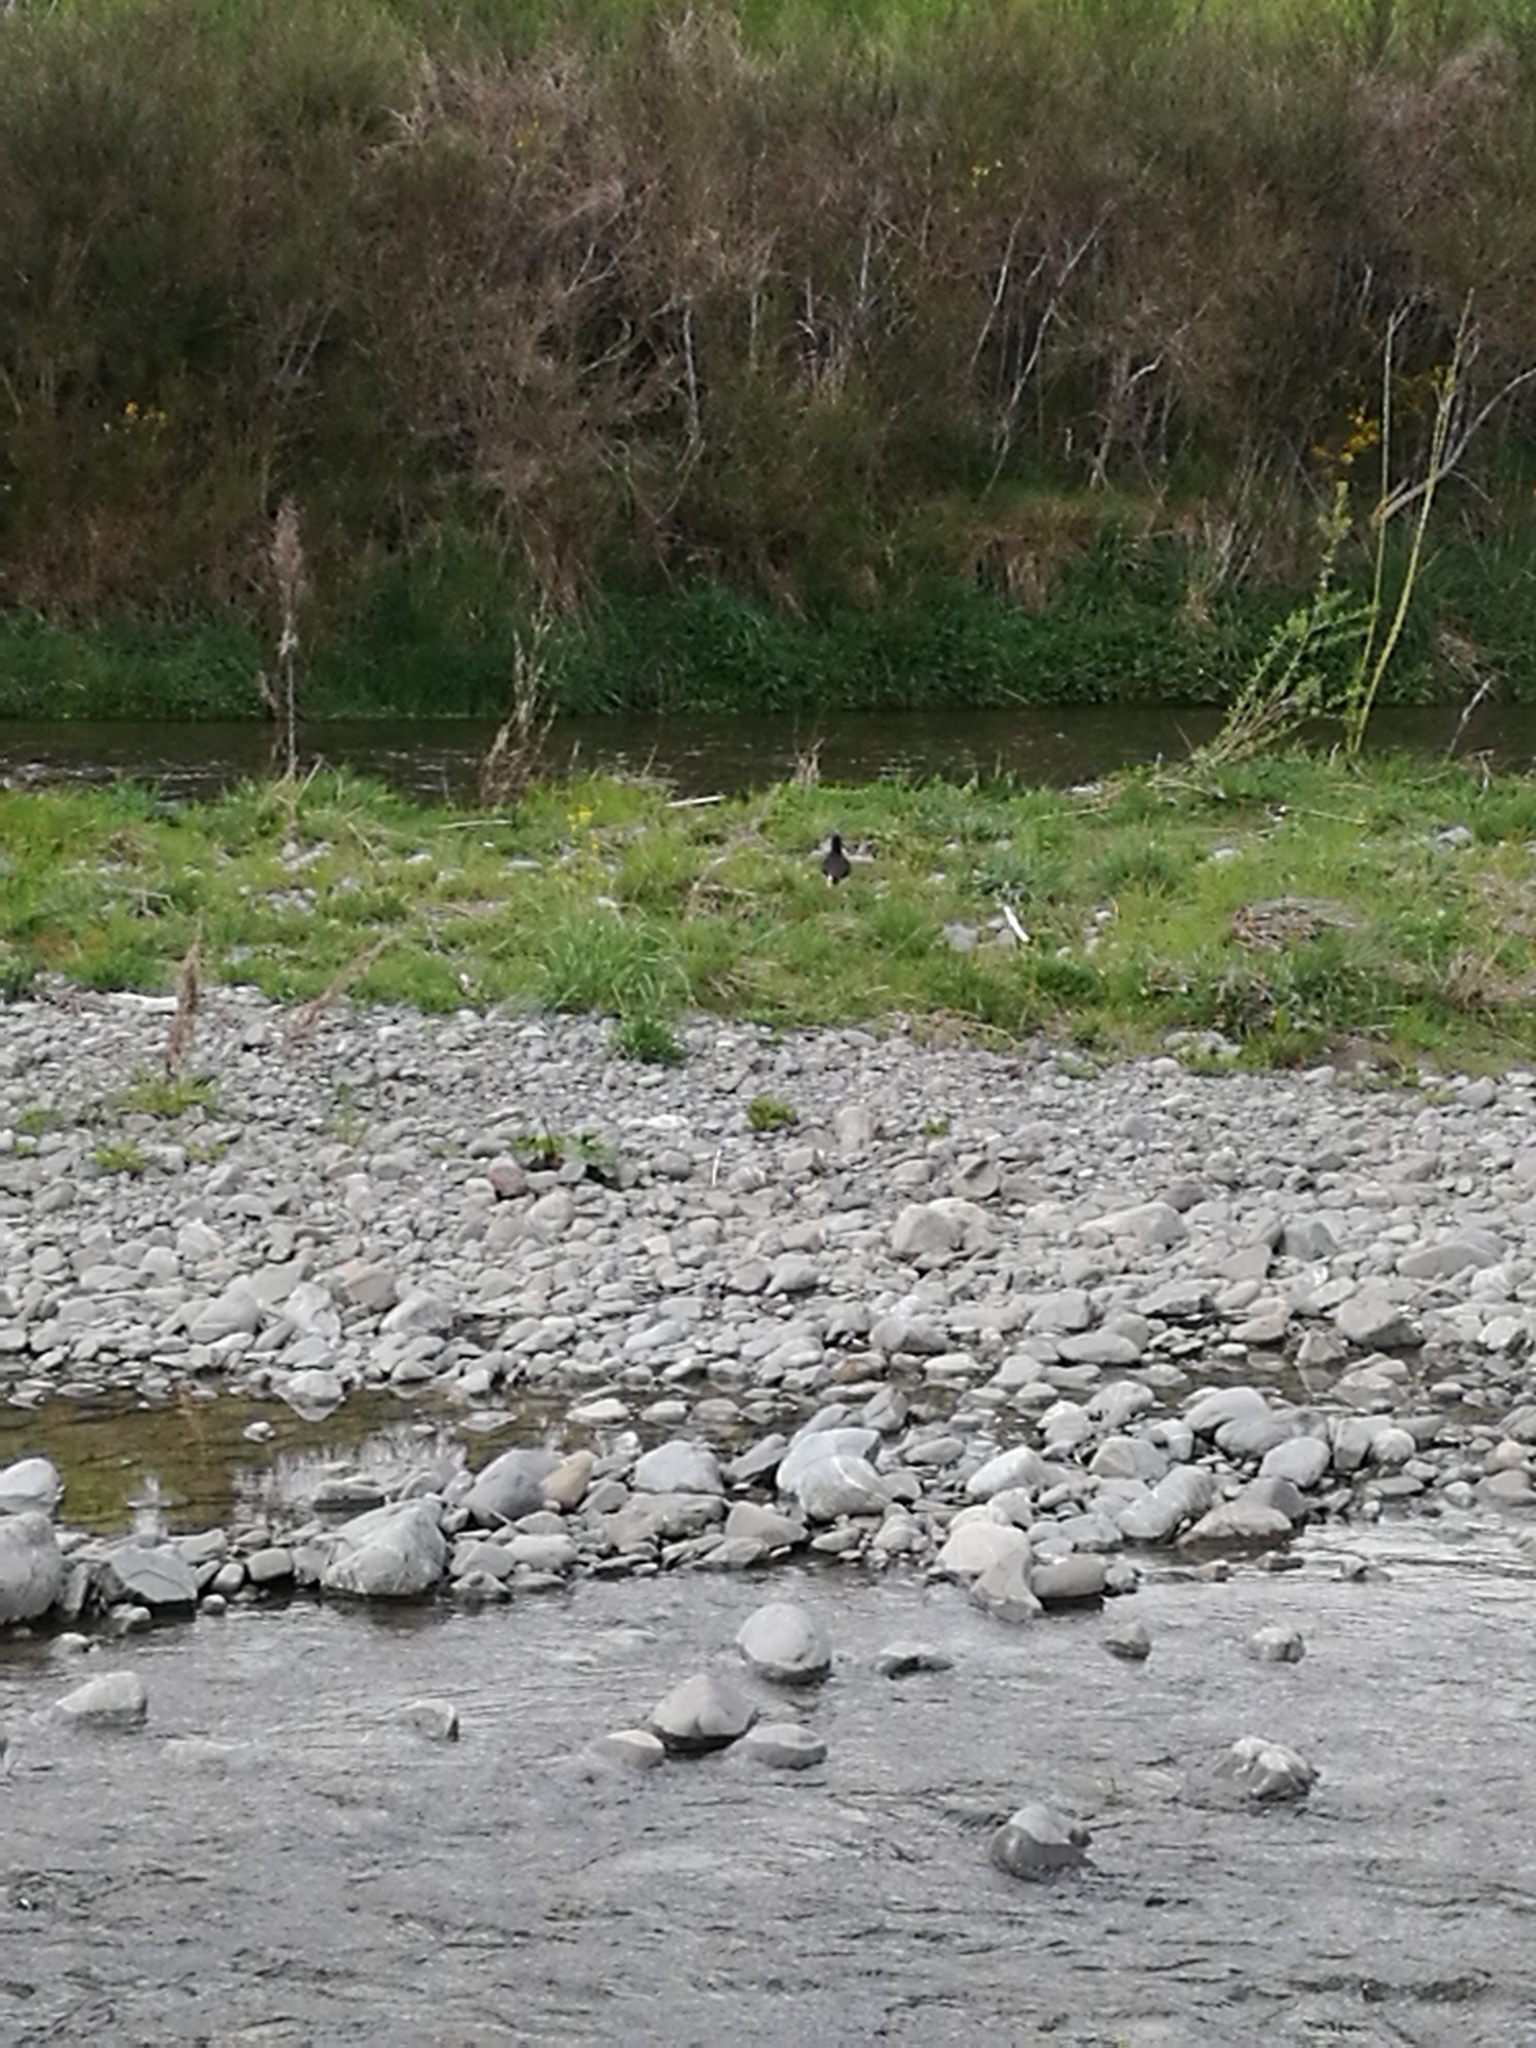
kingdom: Animalia
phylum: Chordata
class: Aves
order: Charadriiformes
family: Haematopodidae
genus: Haematopus
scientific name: Haematopus finschi
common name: South island oystercatcher
